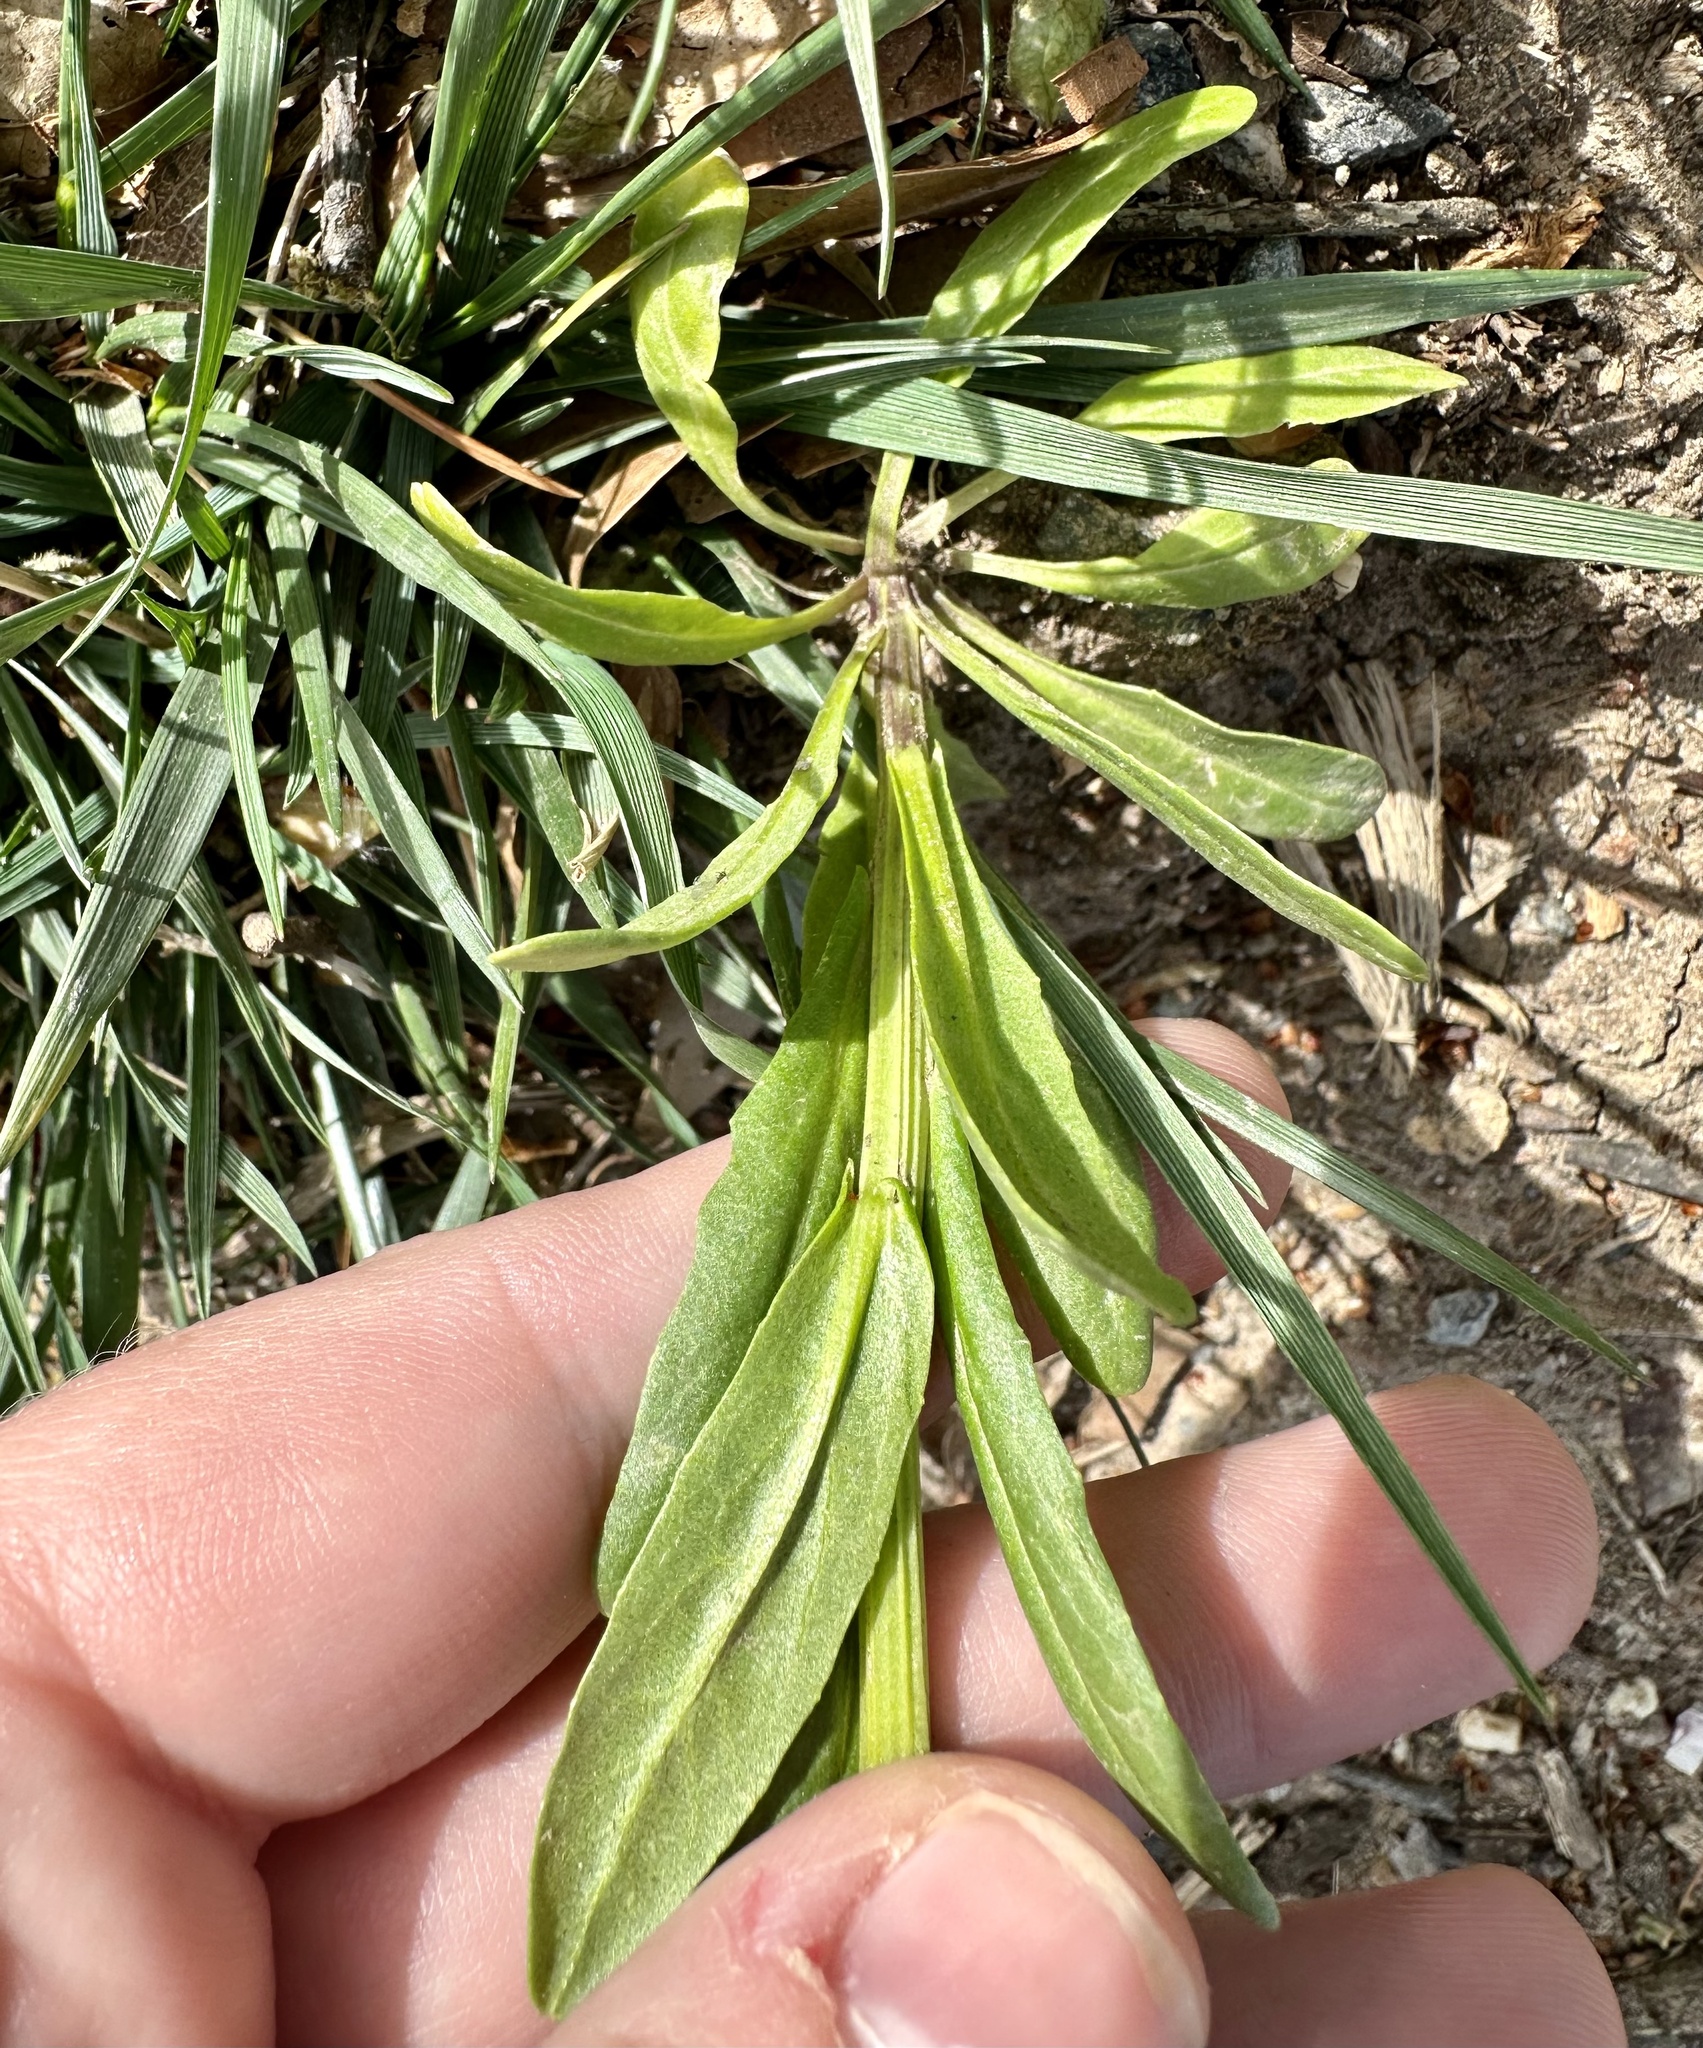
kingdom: Plantae
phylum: Tracheophyta
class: Magnoliopsida
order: Brassicales
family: Brassicaceae
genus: Thlaspi
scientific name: Thlaspi arvense
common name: Field pennycress
